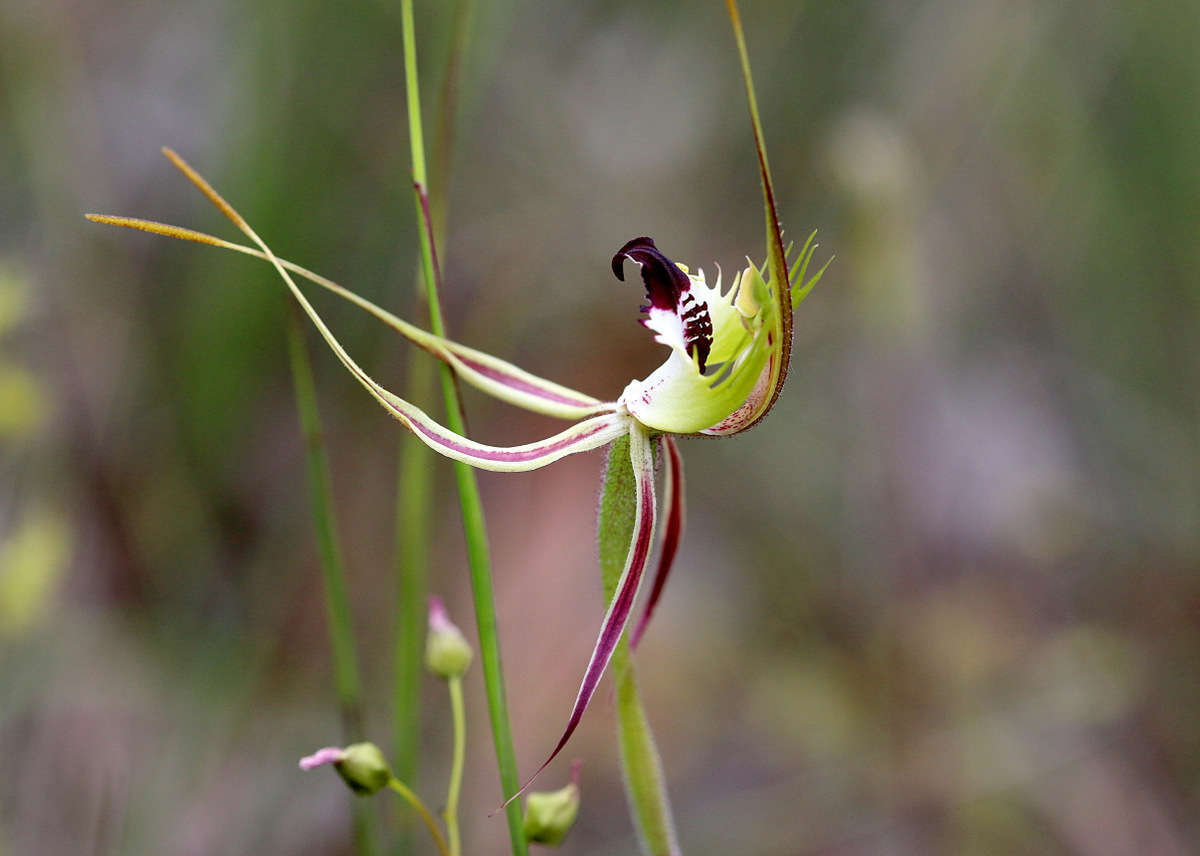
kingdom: Plantae
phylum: Tracheophyta
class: Liliopsida
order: Asparagales
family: Orchidaceae
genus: Caladenia
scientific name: Caladenia tentaculata
